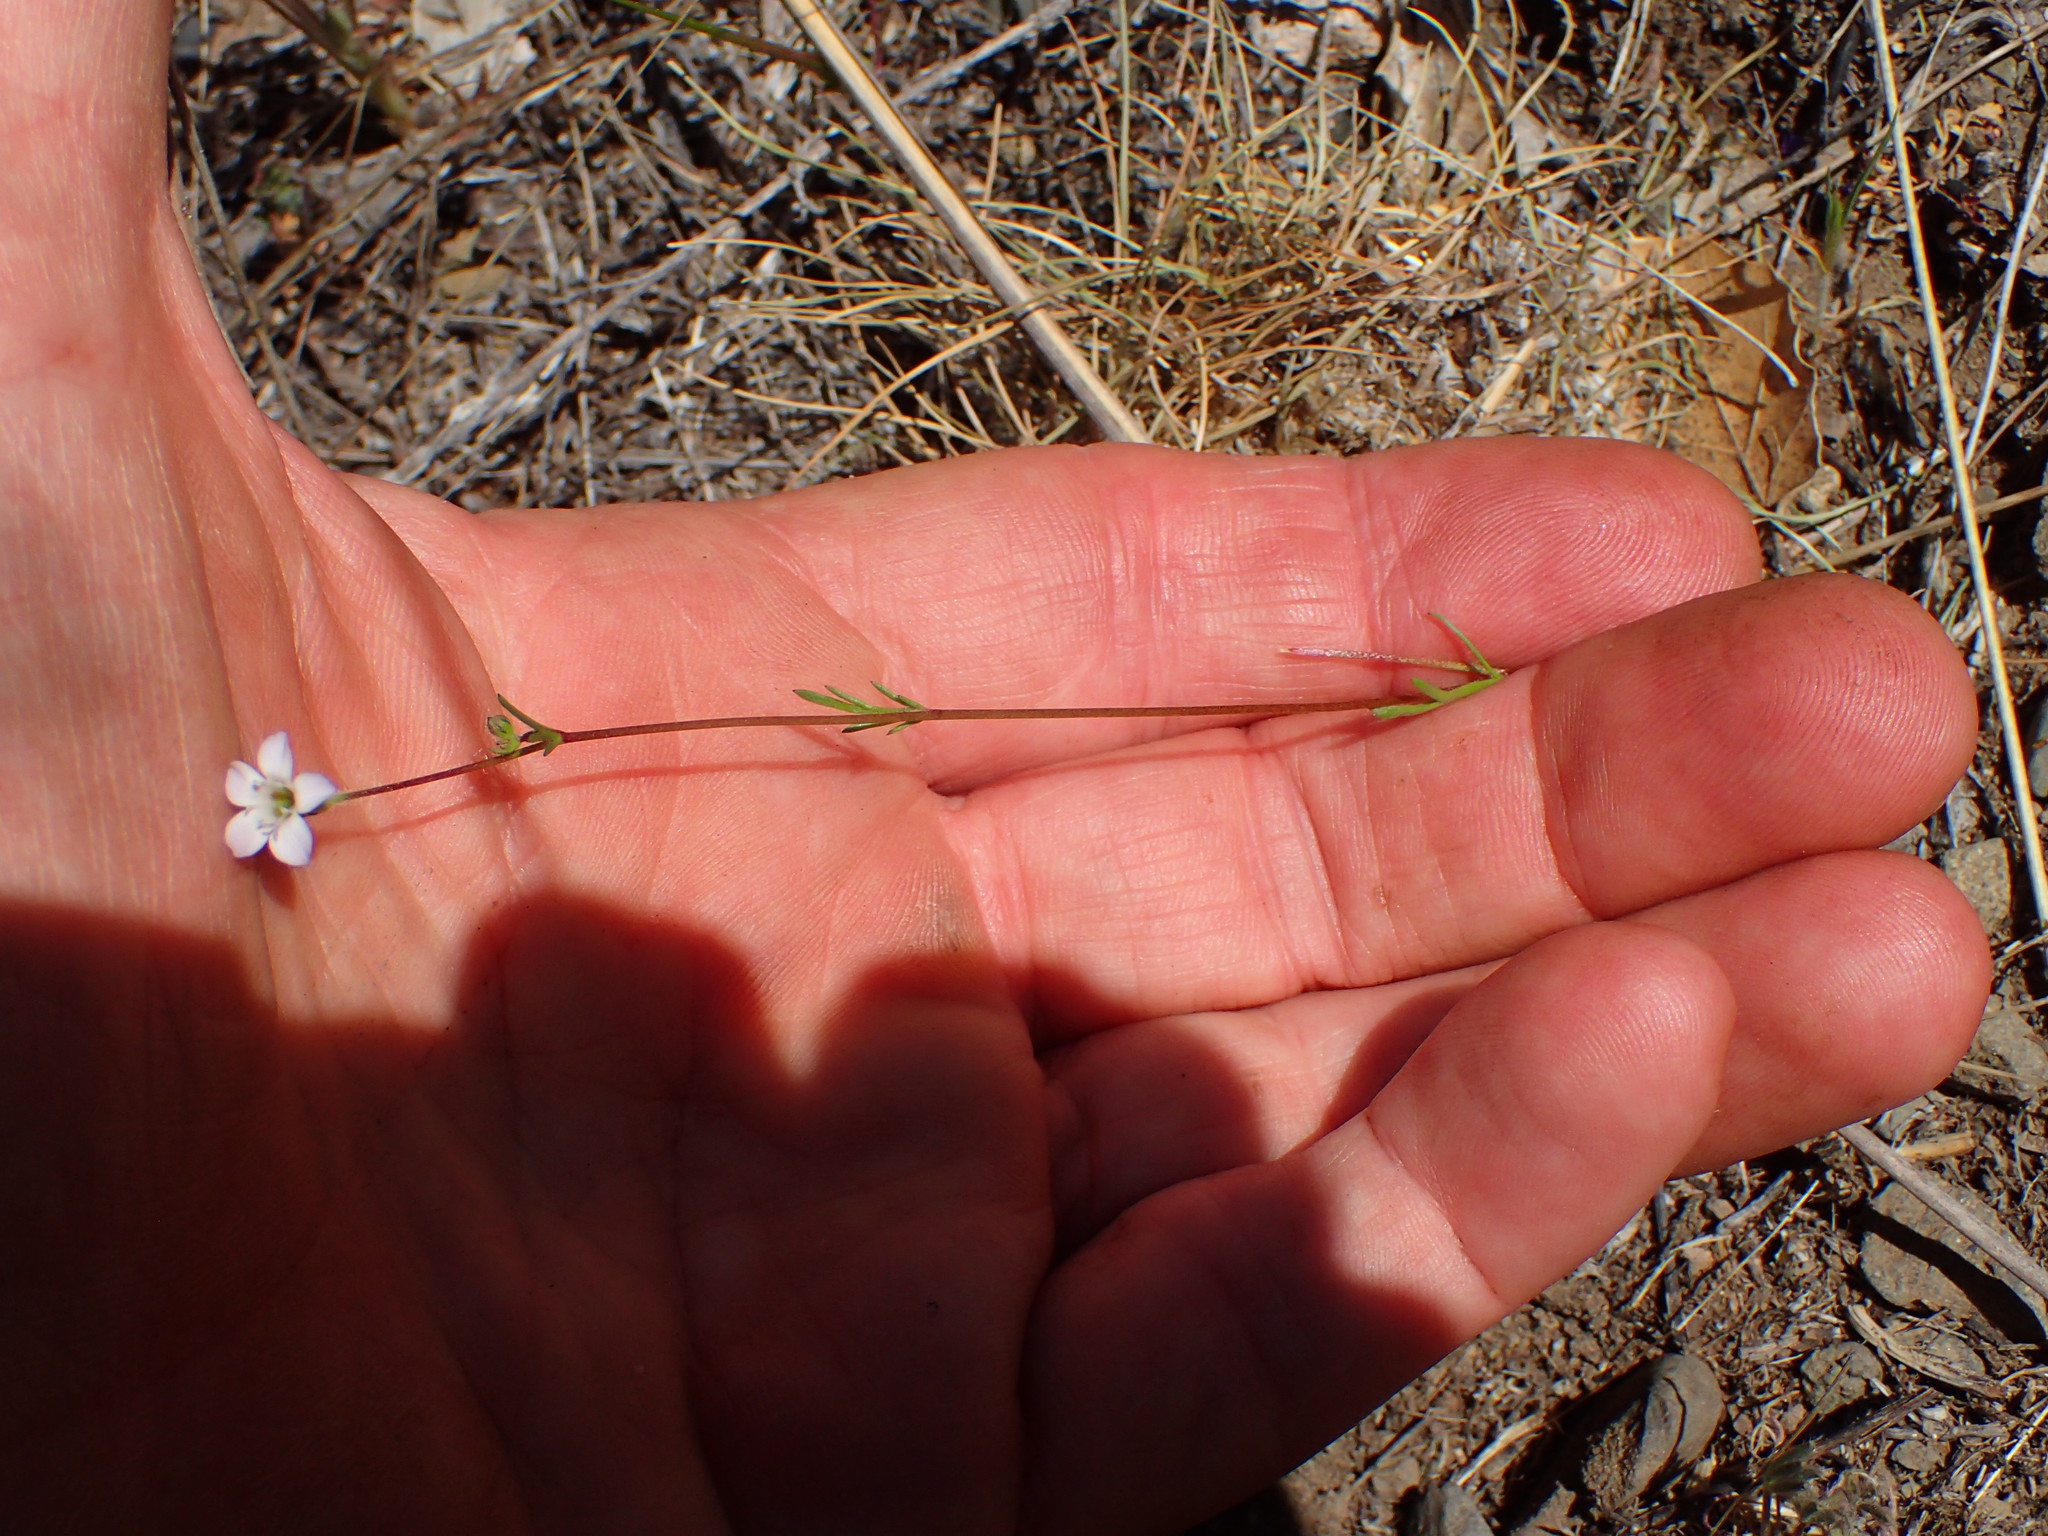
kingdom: Plantae
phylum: Tracheophyta
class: Magnoliopsida
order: Ericales
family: Polemoniaceae
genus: Gilia
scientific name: Gilia angelensis
